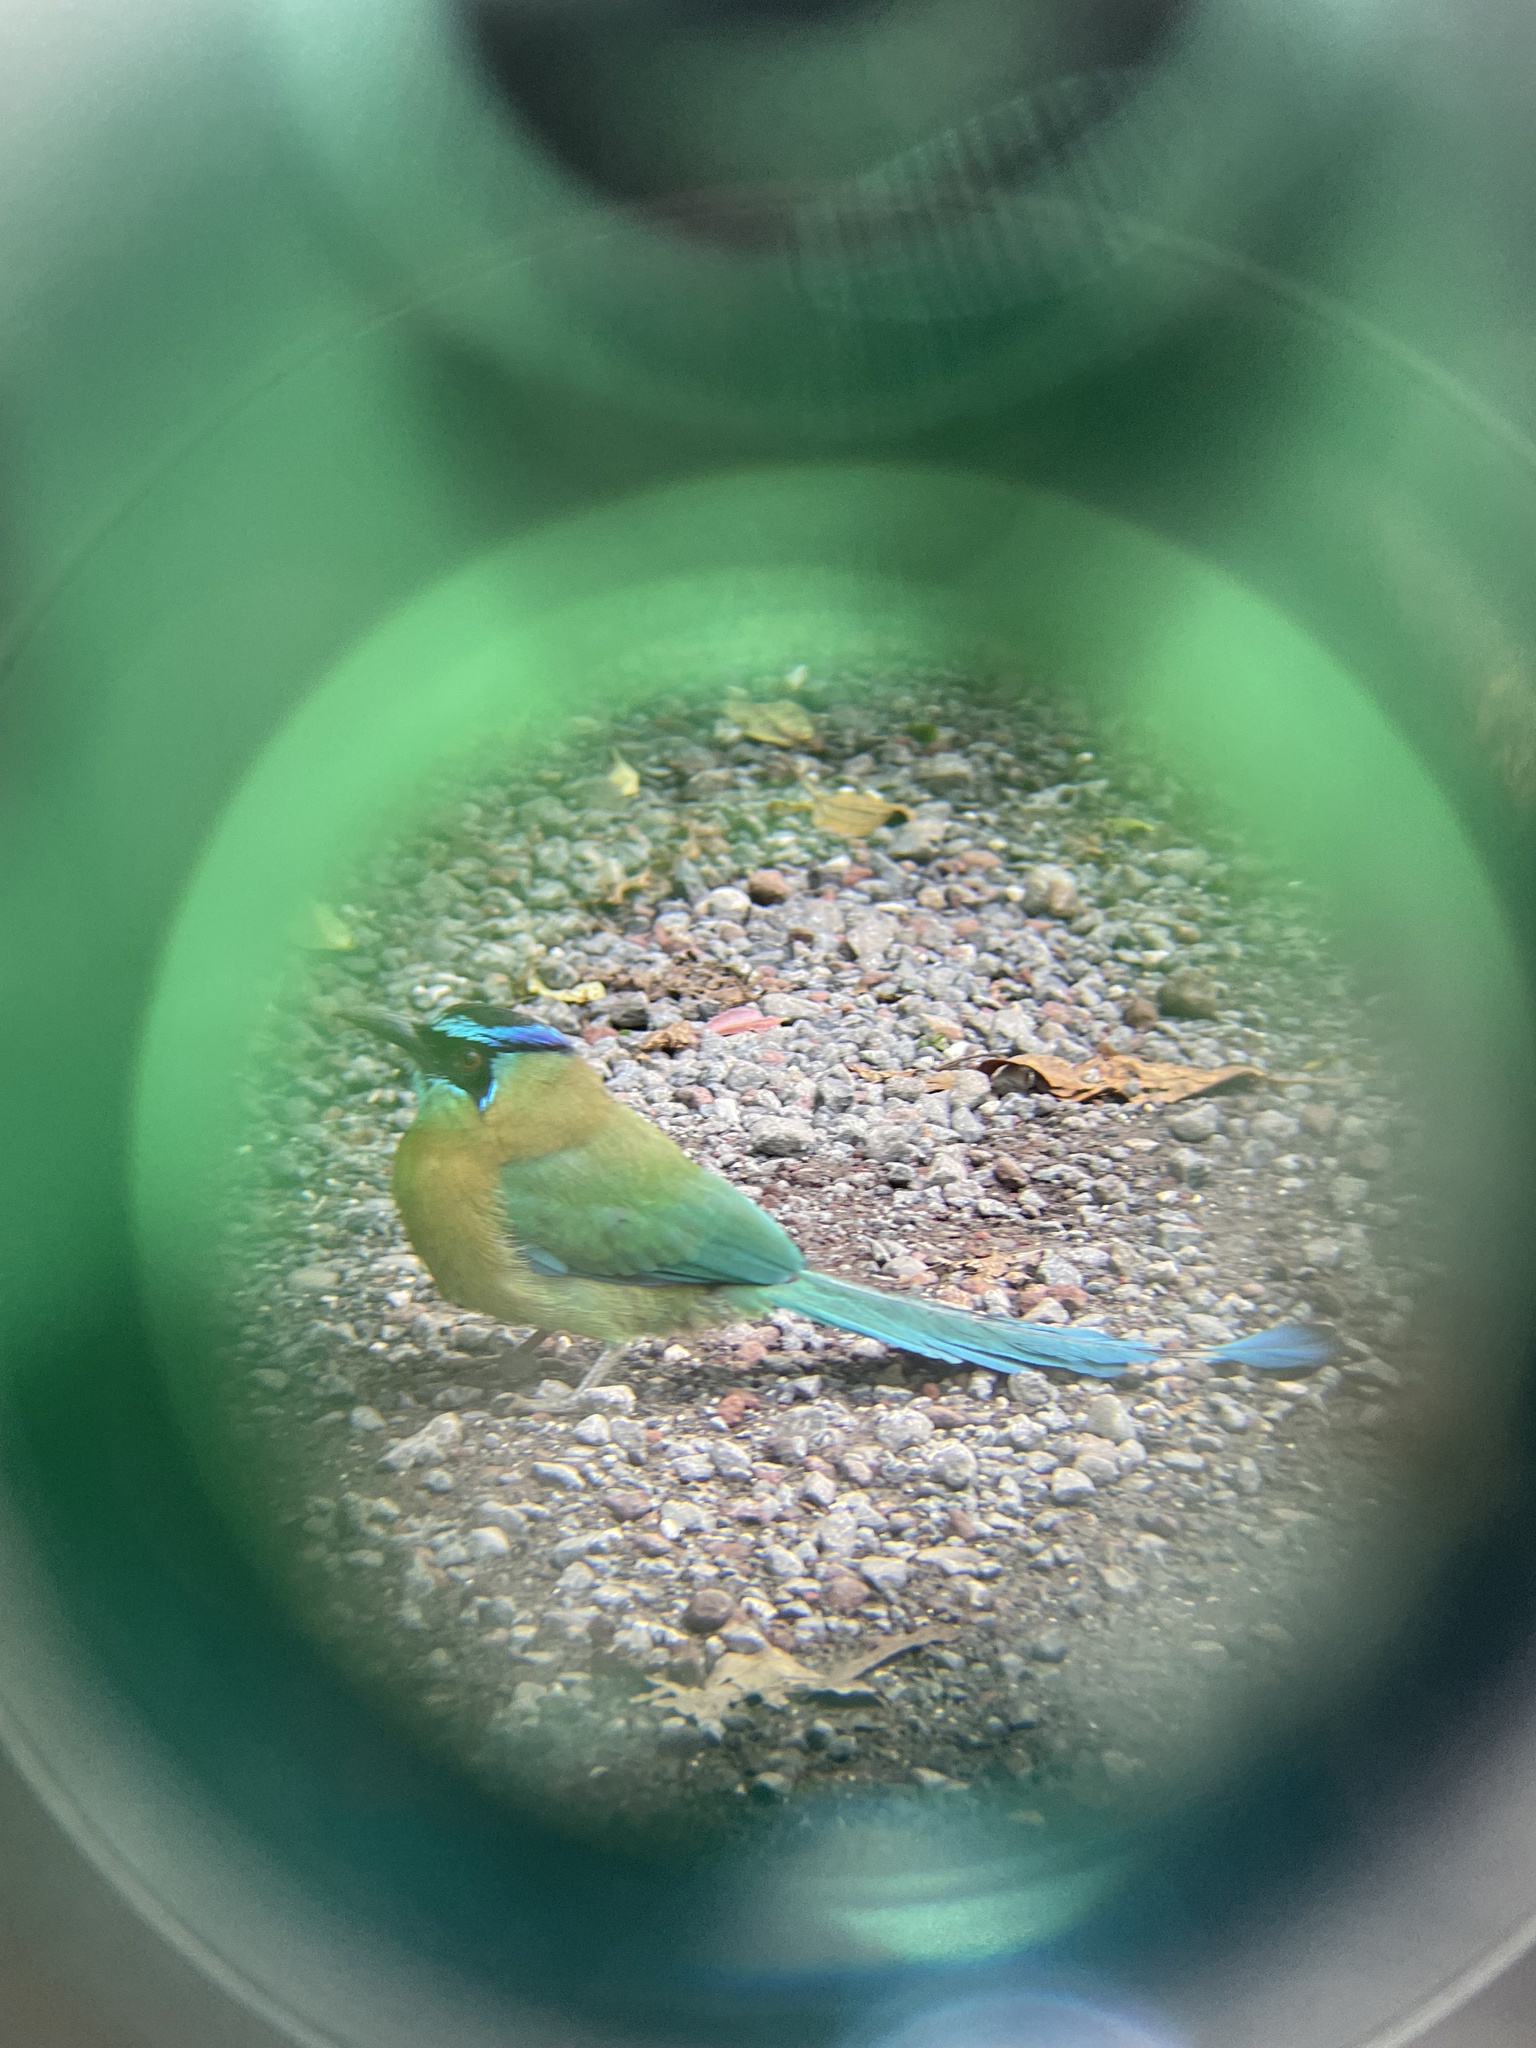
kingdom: Animalia
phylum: Chordata
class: Aves
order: Coraciiformes
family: Momotidae
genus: Momotus
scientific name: Momotus lessonii
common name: Lesson's motmot
